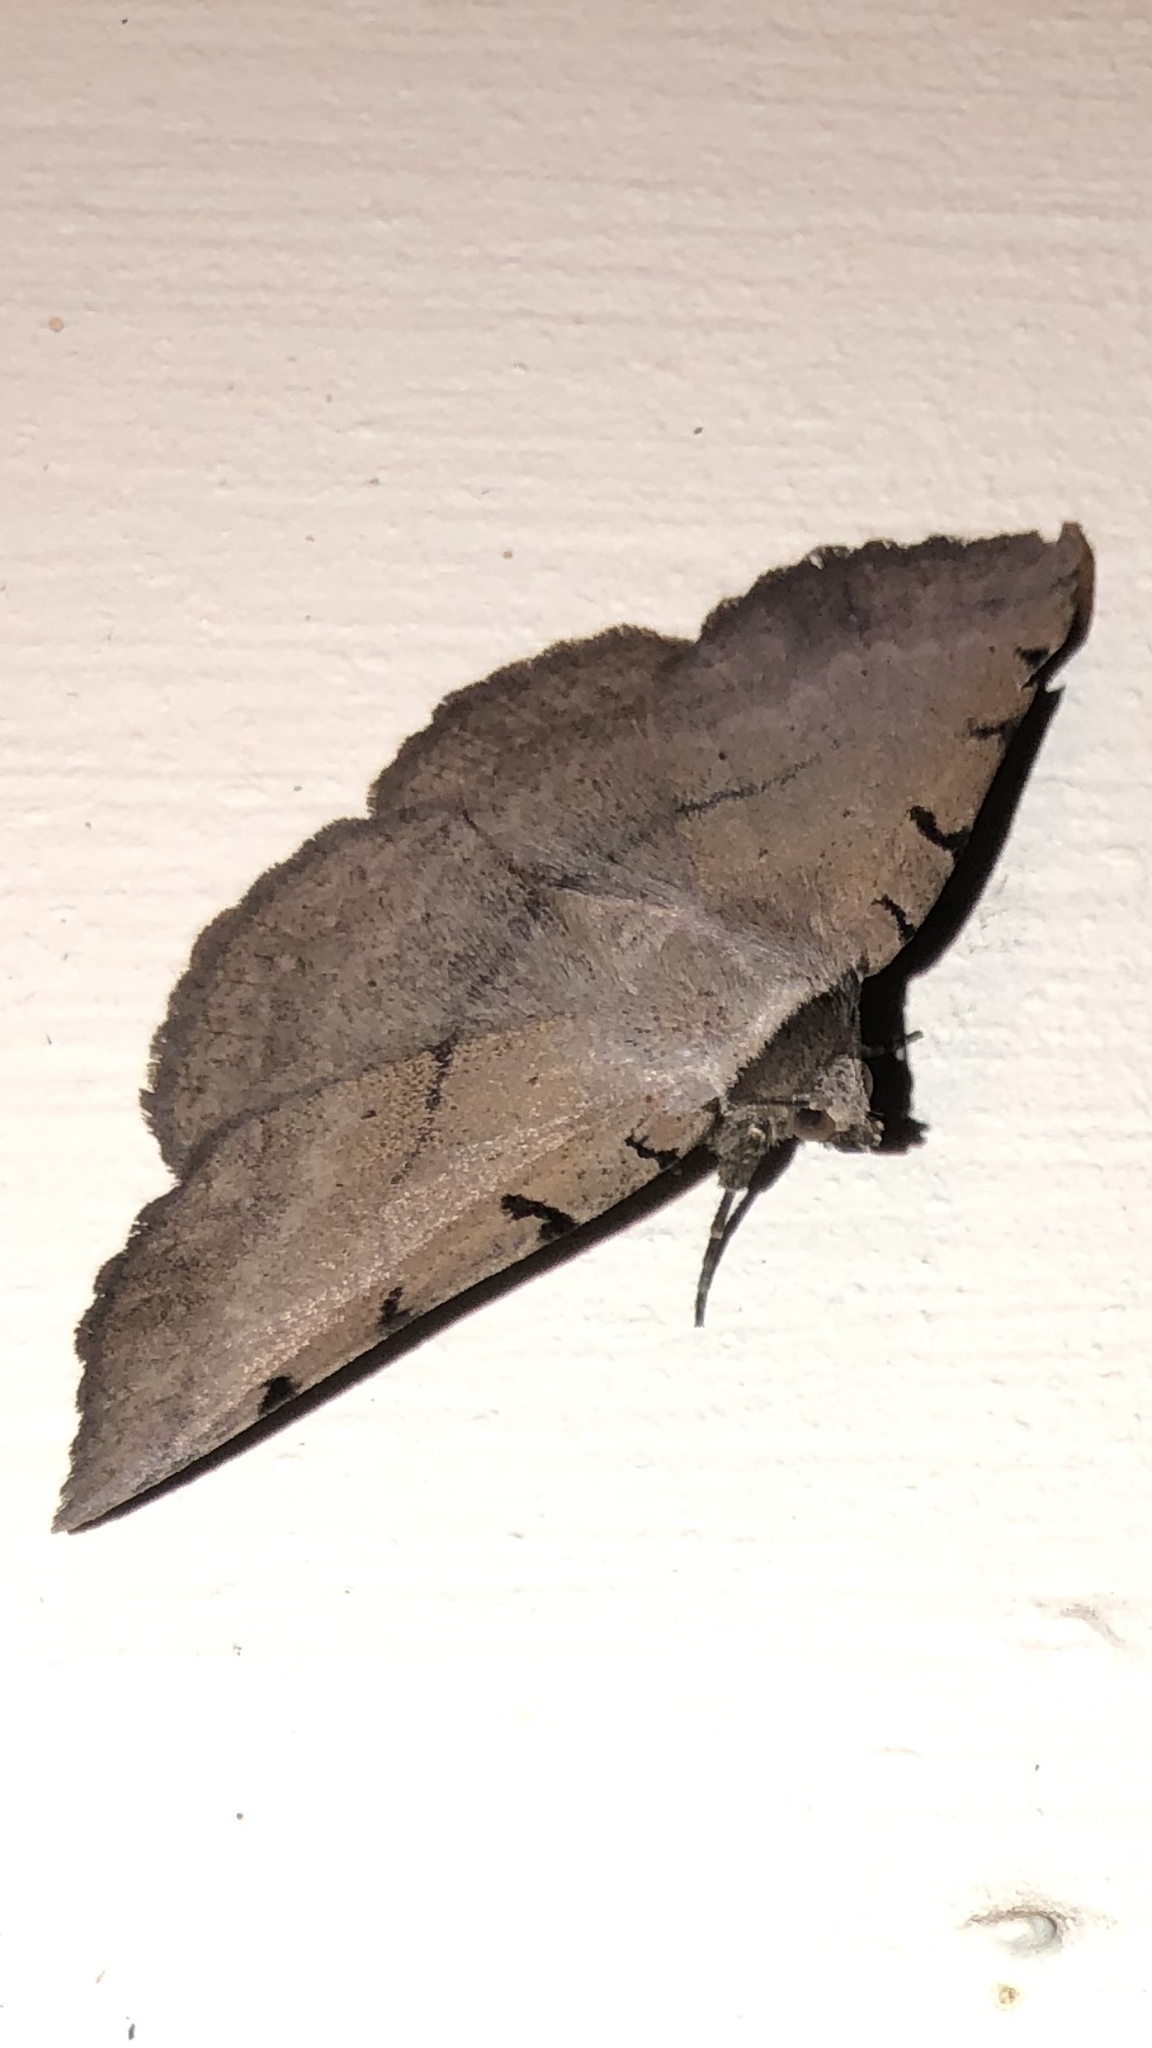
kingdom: Animalia
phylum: Arthropoda
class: Insecta
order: Lepidoptera
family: Erebidae
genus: Spiloloma
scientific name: Spiloloma lunilinea
